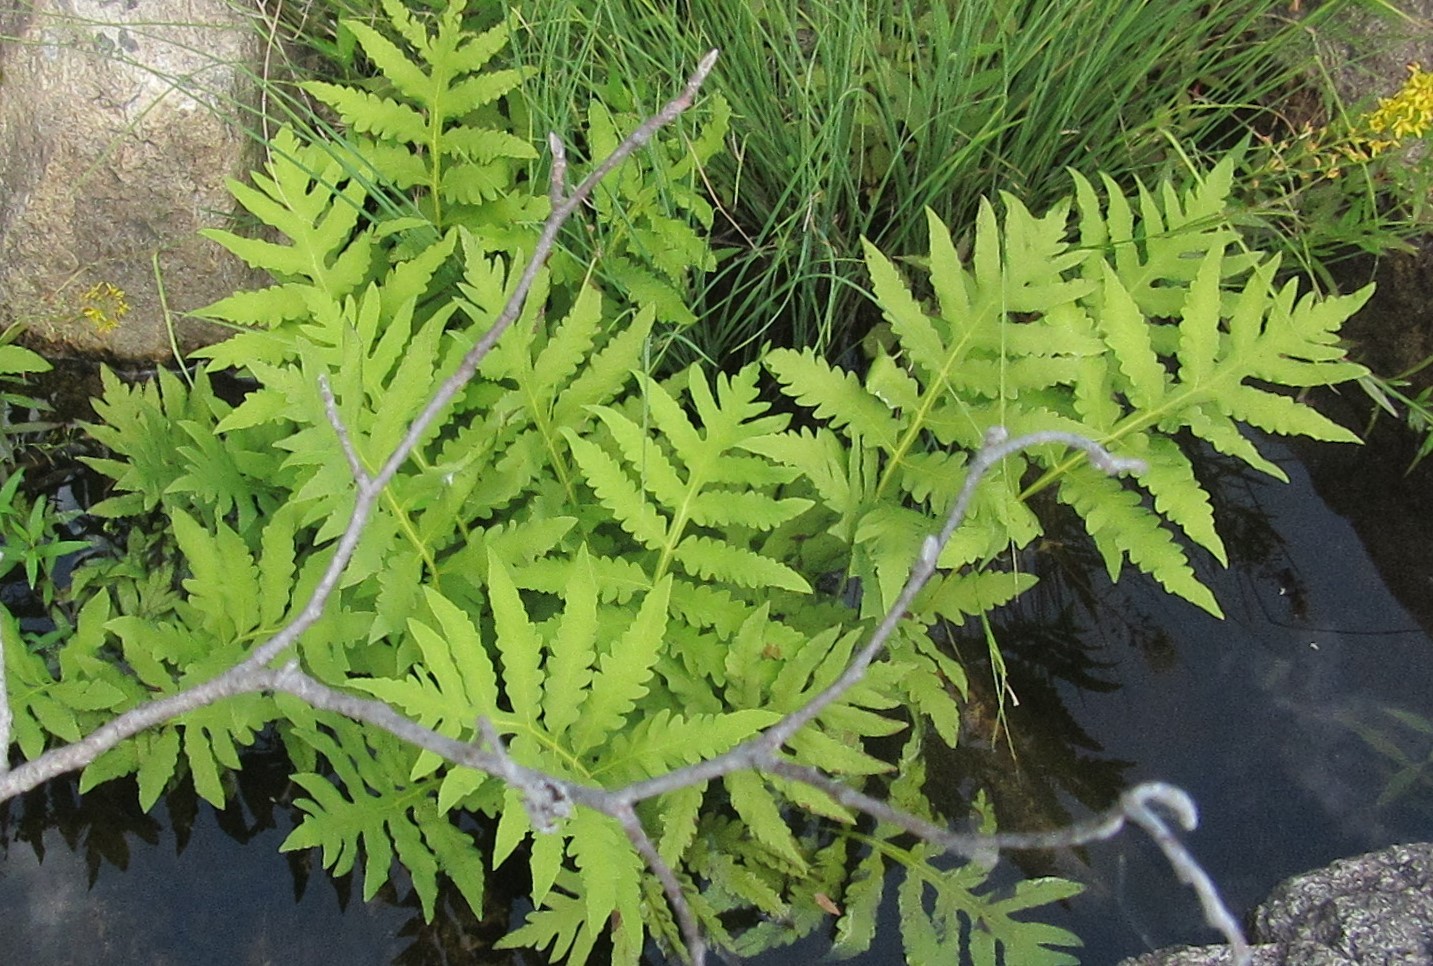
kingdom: Plantae
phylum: Tracheophyta
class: Polypodiopsida
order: Polypodiales
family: Onocleaceae
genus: Onoclea
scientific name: Onoclea sensibilis
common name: Sensitive fern
